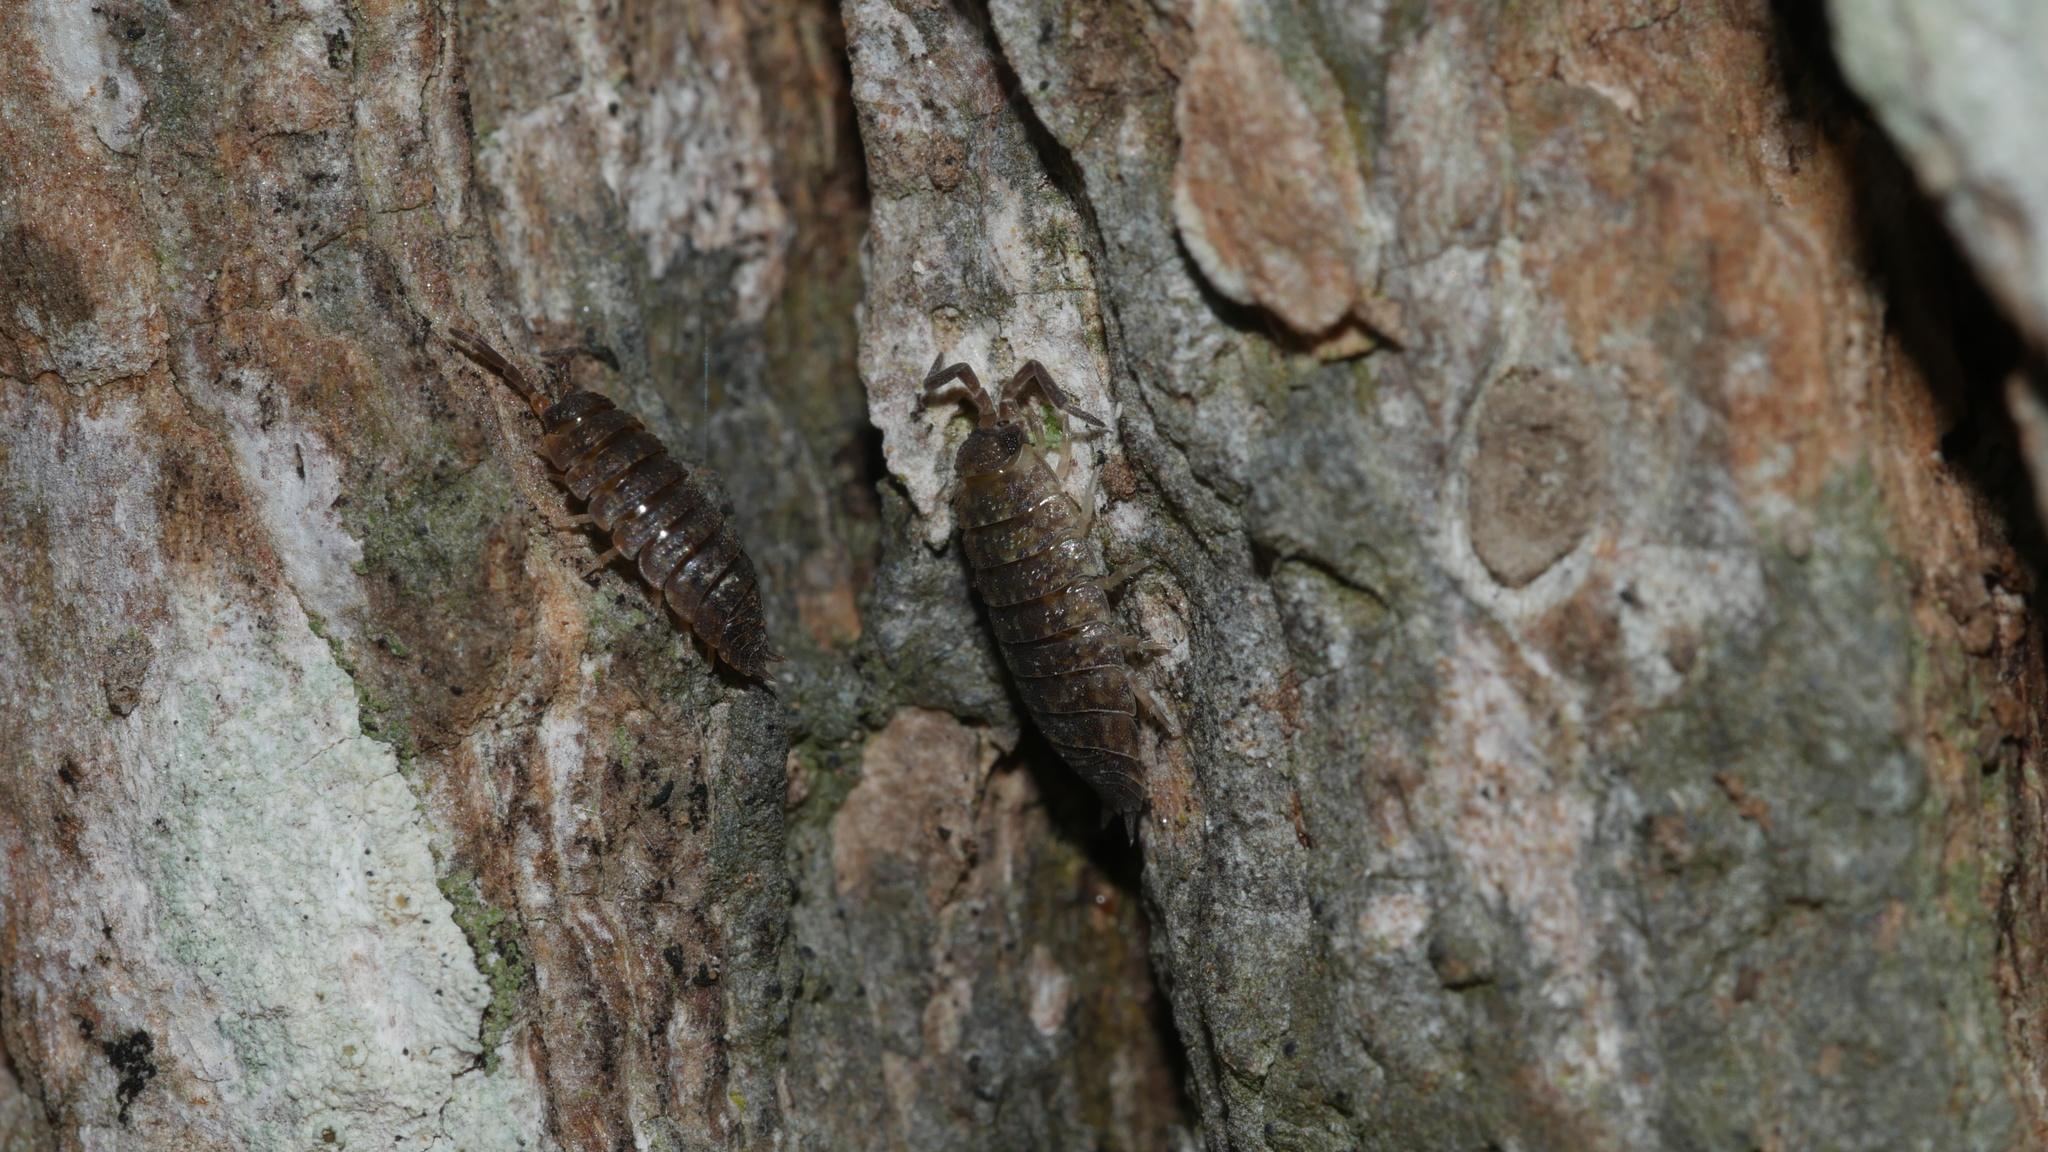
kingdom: Animalia
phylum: Arthropoda
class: Malacostraca
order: Isopoda
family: Porcellionidae
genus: Porcellio
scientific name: Porcellio scaber
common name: Common rough woodlouse
